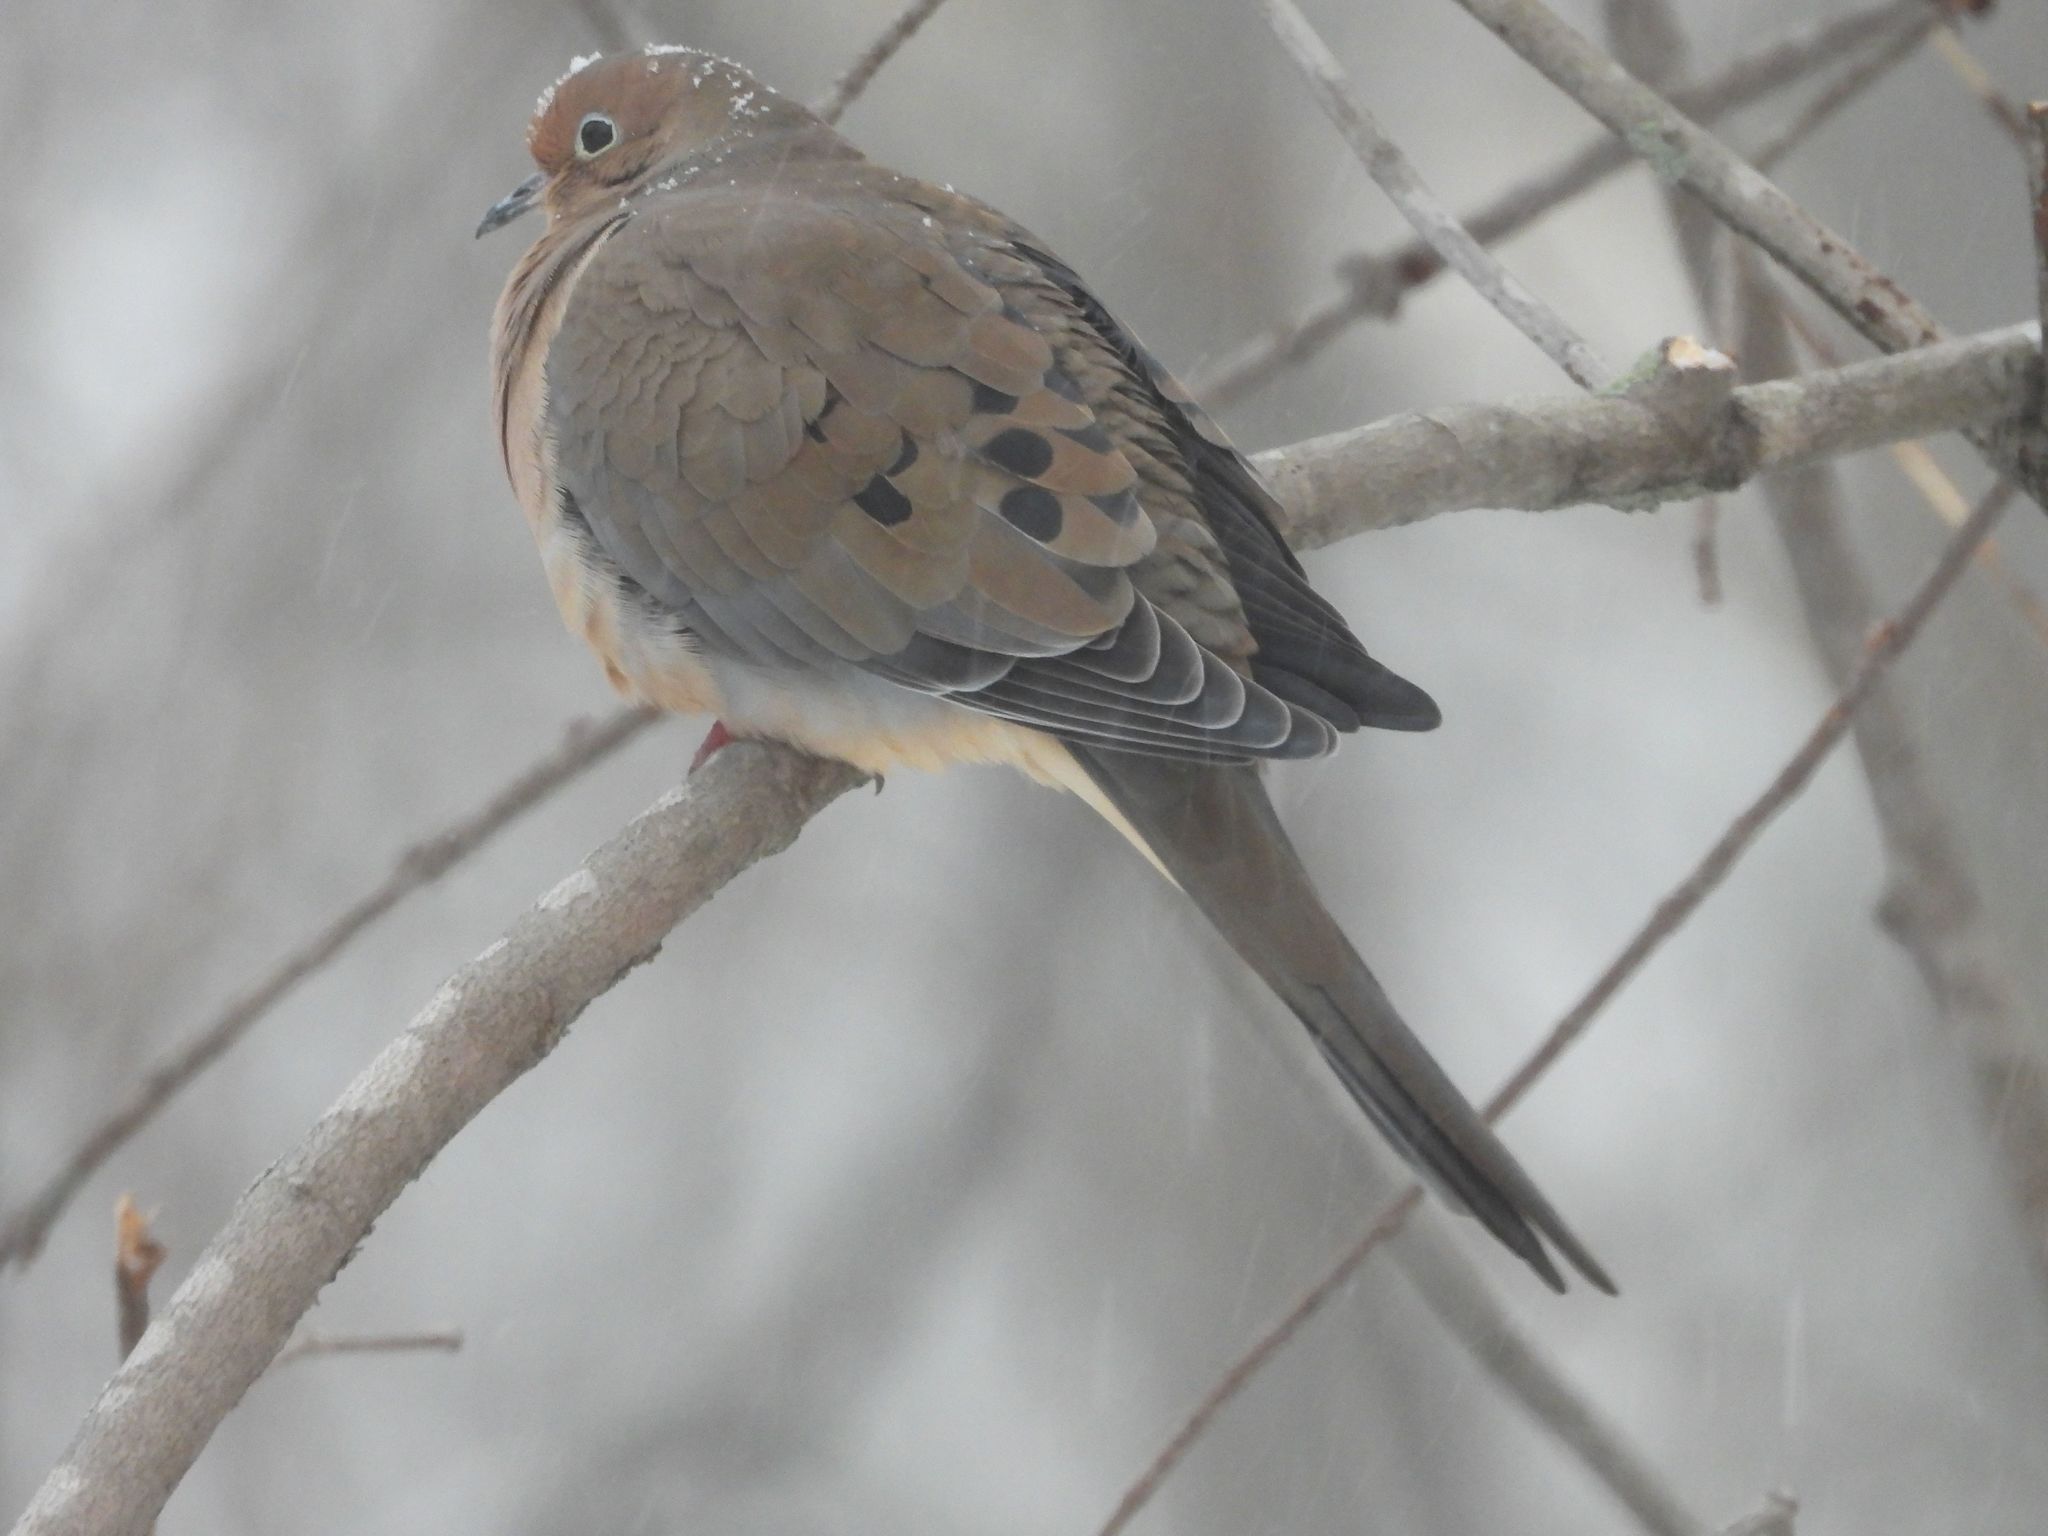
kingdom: Animalia
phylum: Chordata
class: Aves
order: Columbiformes
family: Columbidae
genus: Zenaida
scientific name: Zenaida macroura
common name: Mourning dove
